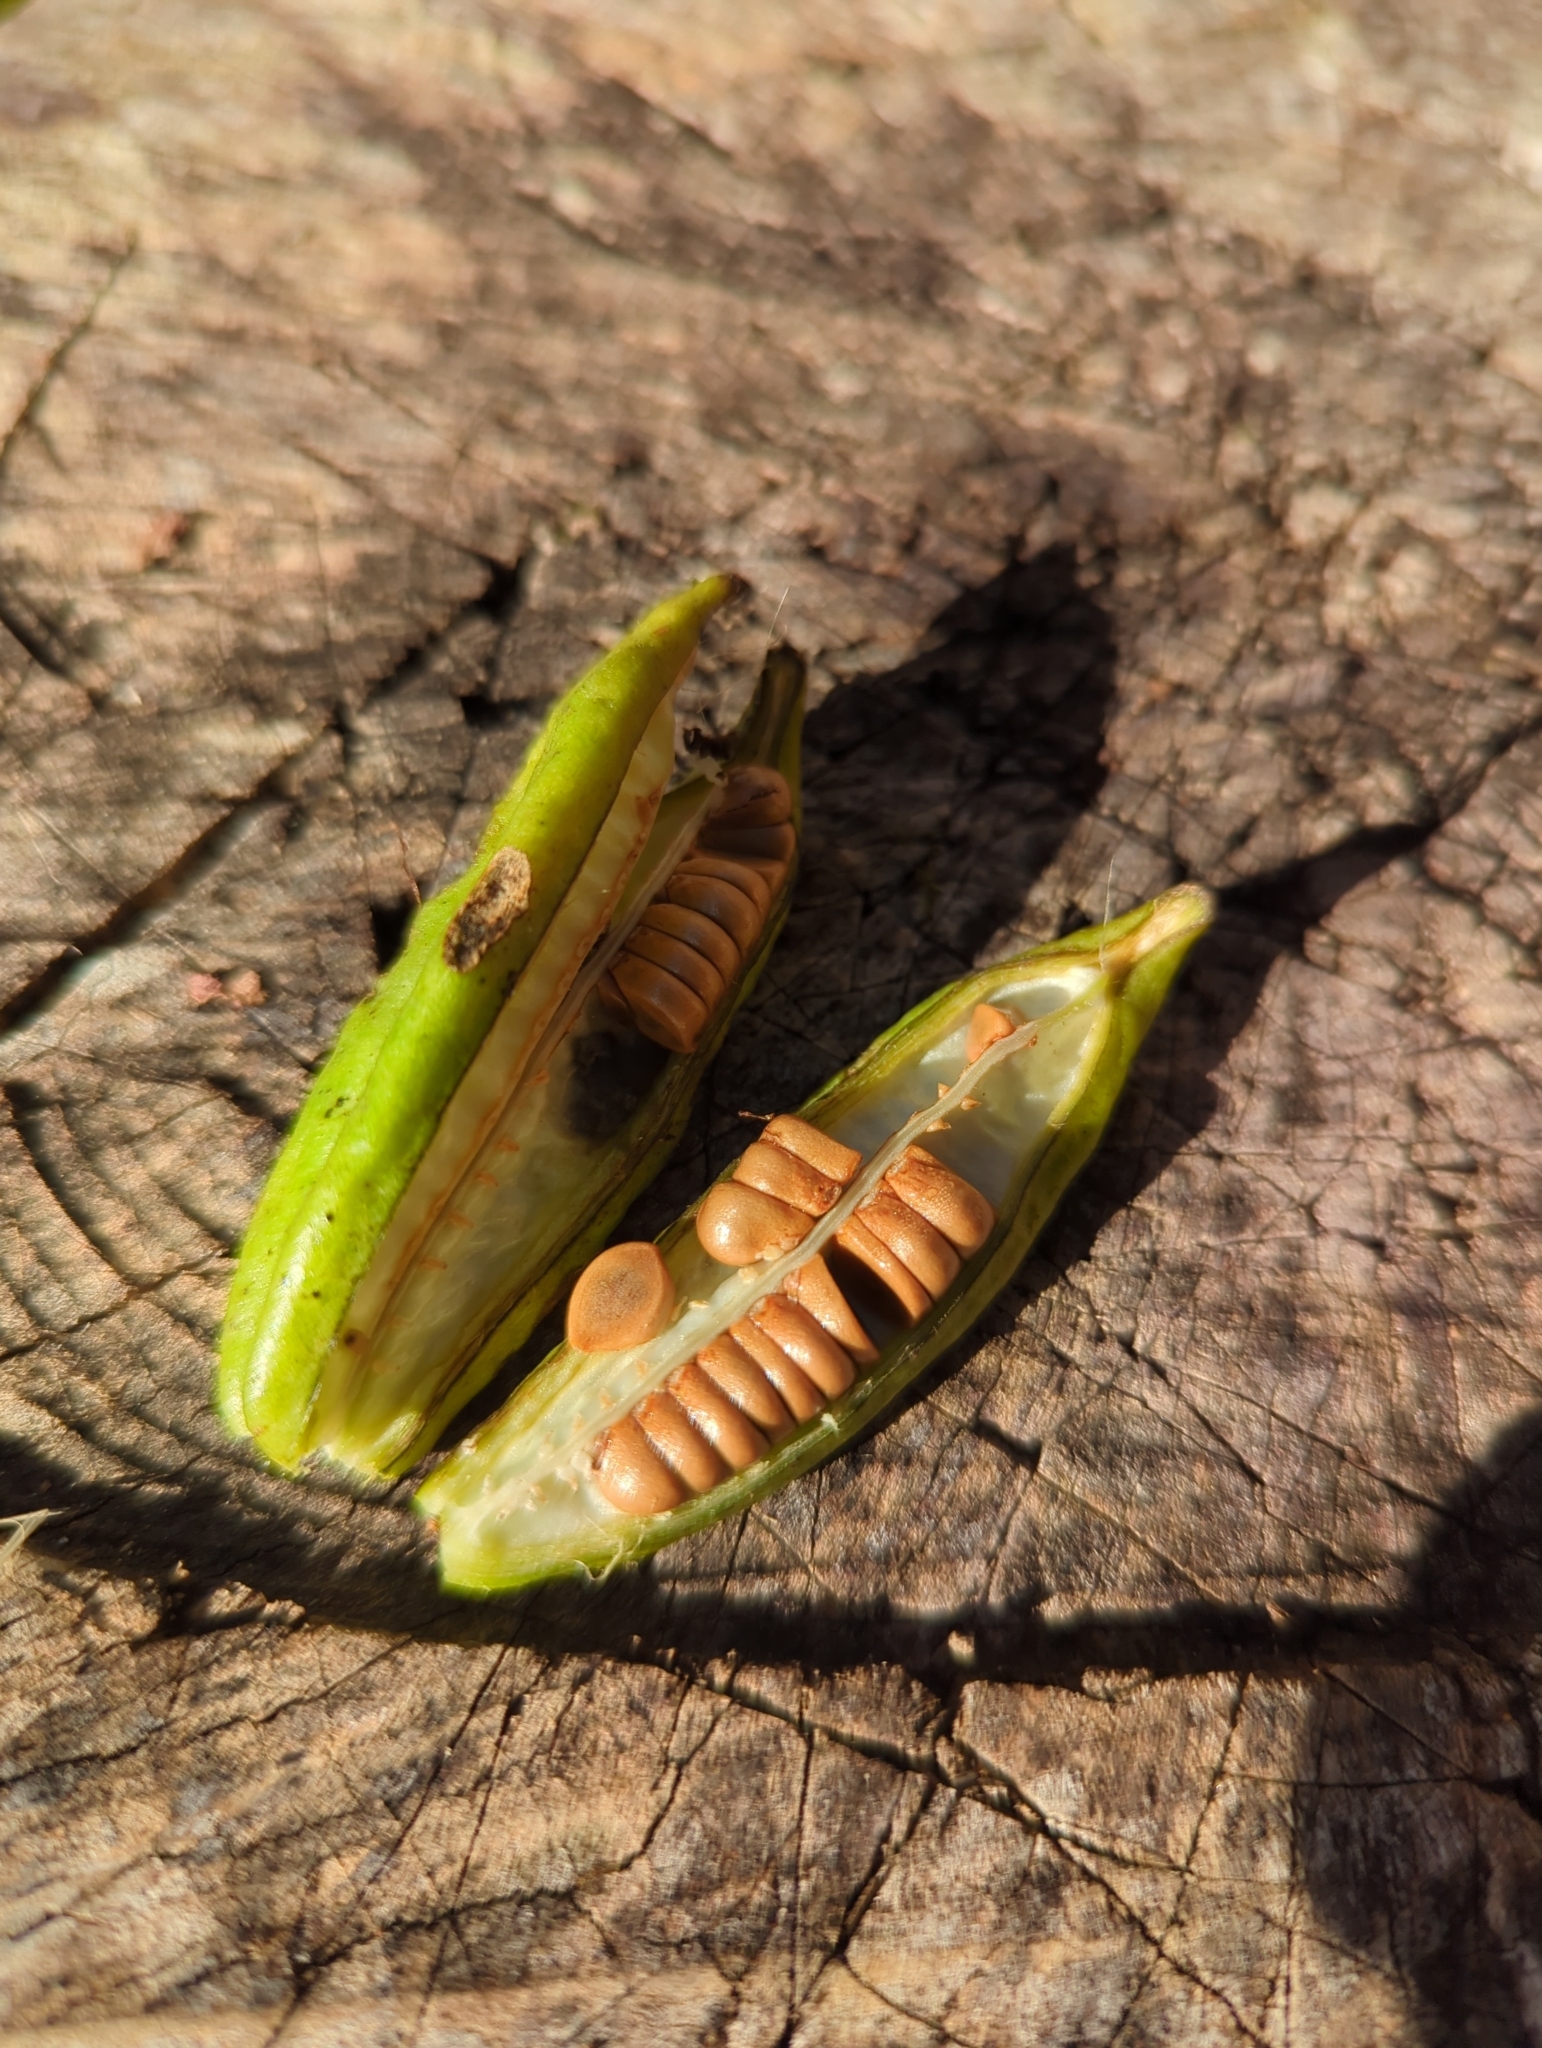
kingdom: Plantae
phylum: Tracheophyta
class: Liliopsida
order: Asparagales
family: Iridaceae
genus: Iris
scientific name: Iris pseudacorus
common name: Yellow flag
